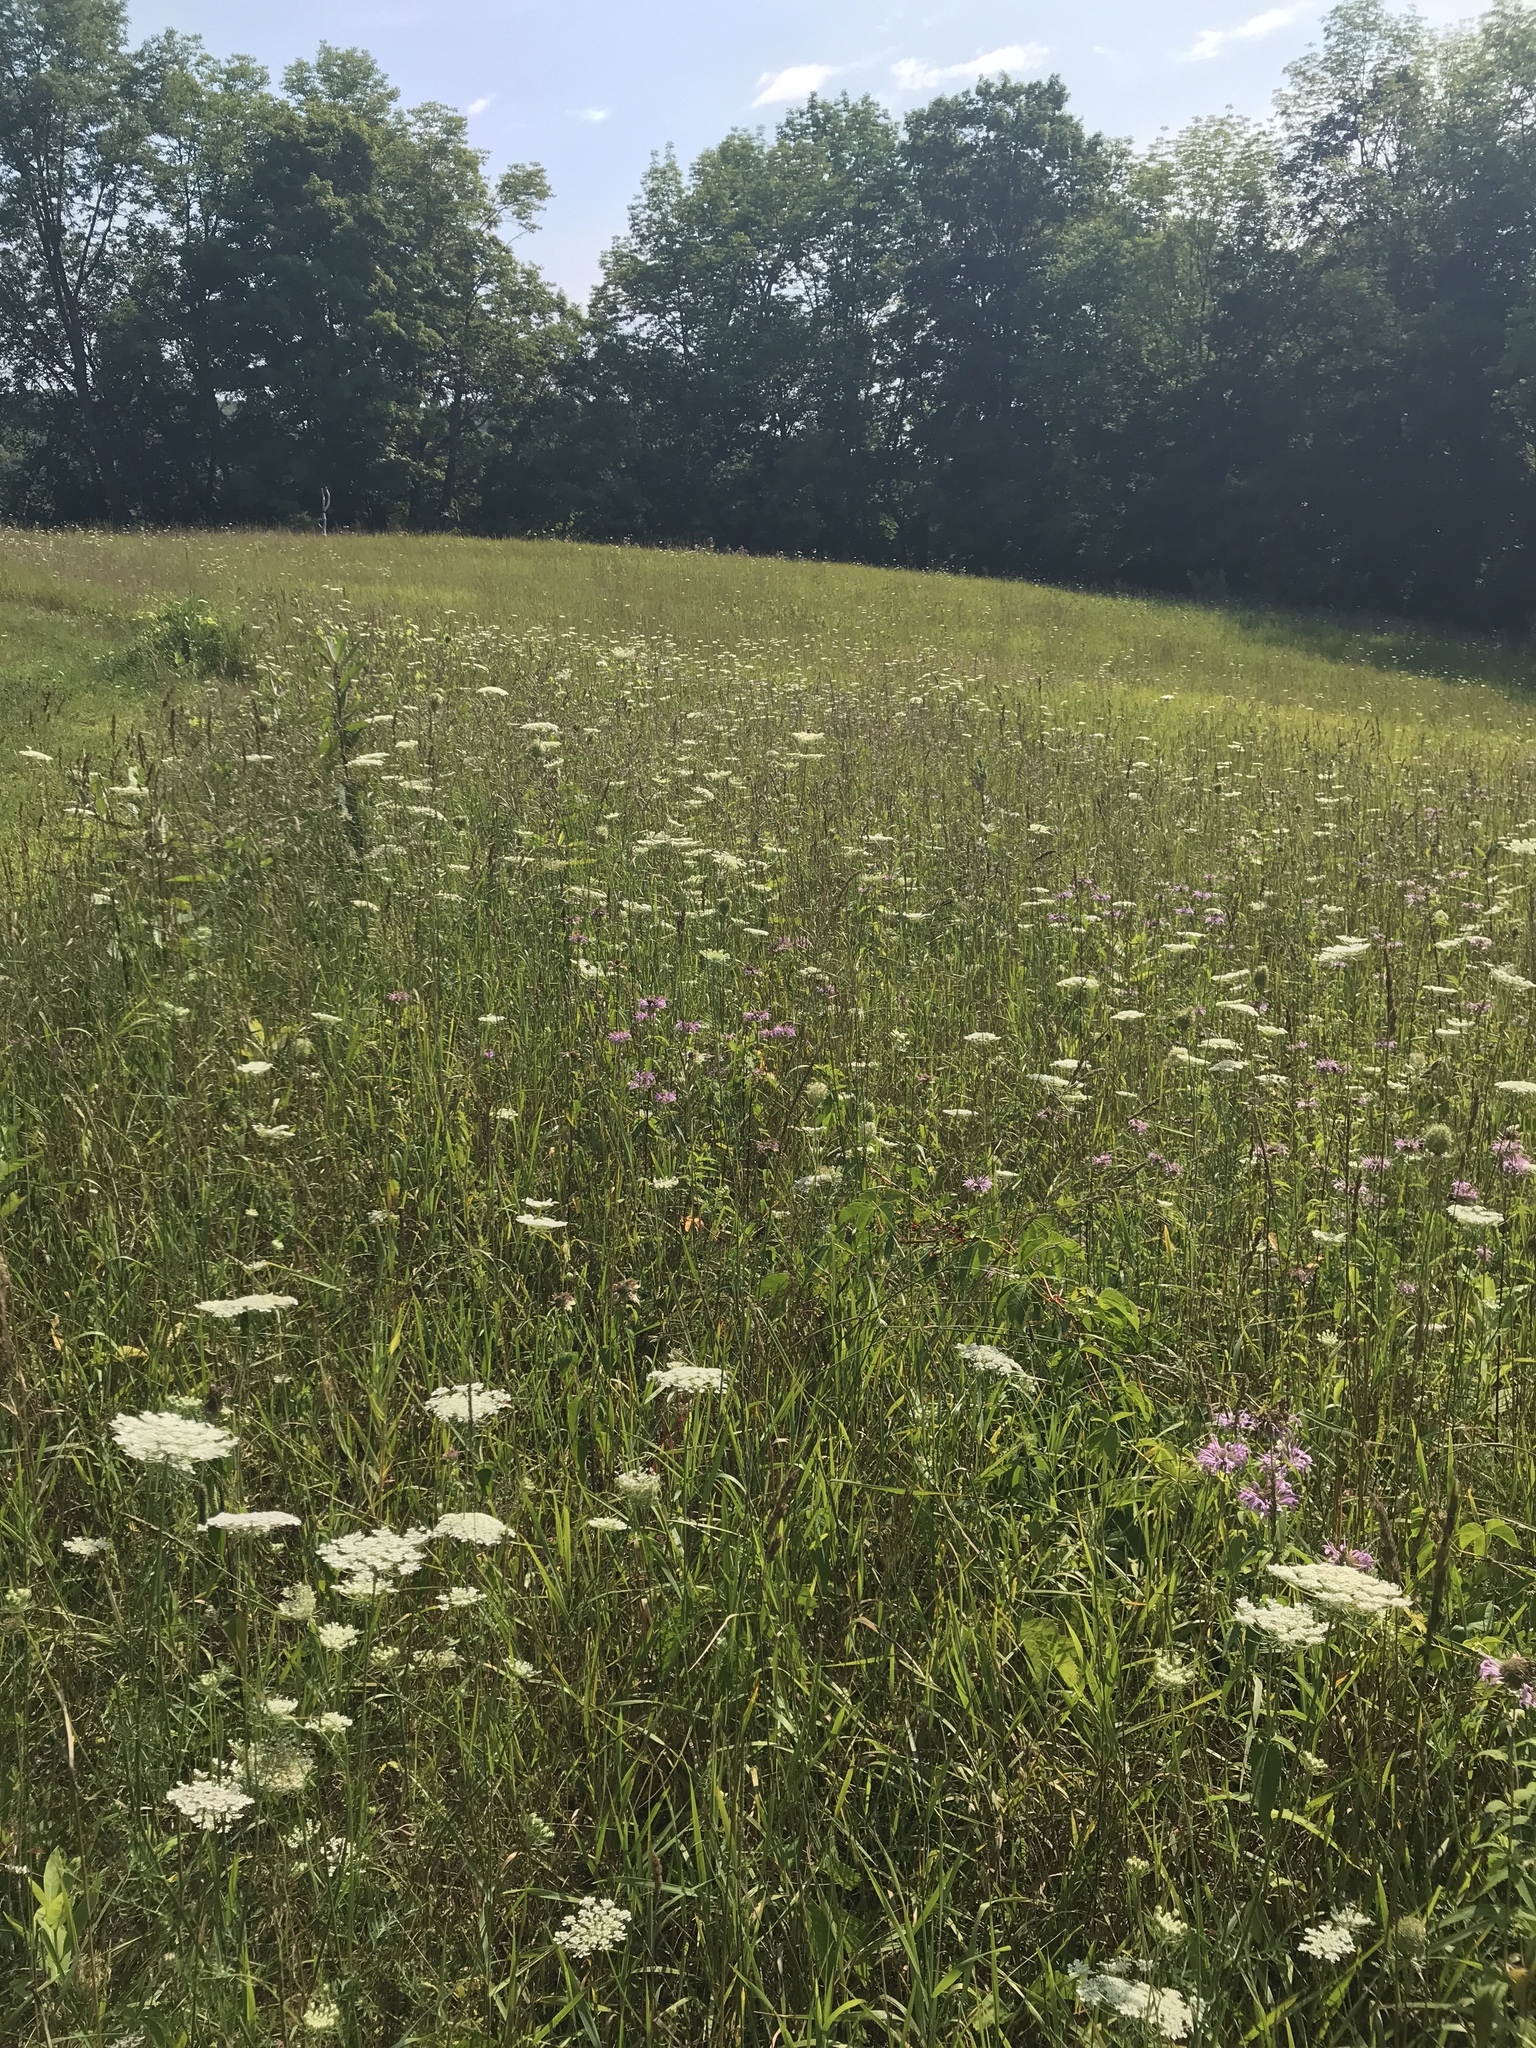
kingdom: Plantae
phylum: Tracheophyta
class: Magnoliopsida
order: Lamiales
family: Lamiaceae
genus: Monarda
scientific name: Monarda fistulosa
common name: Purple beebalm
